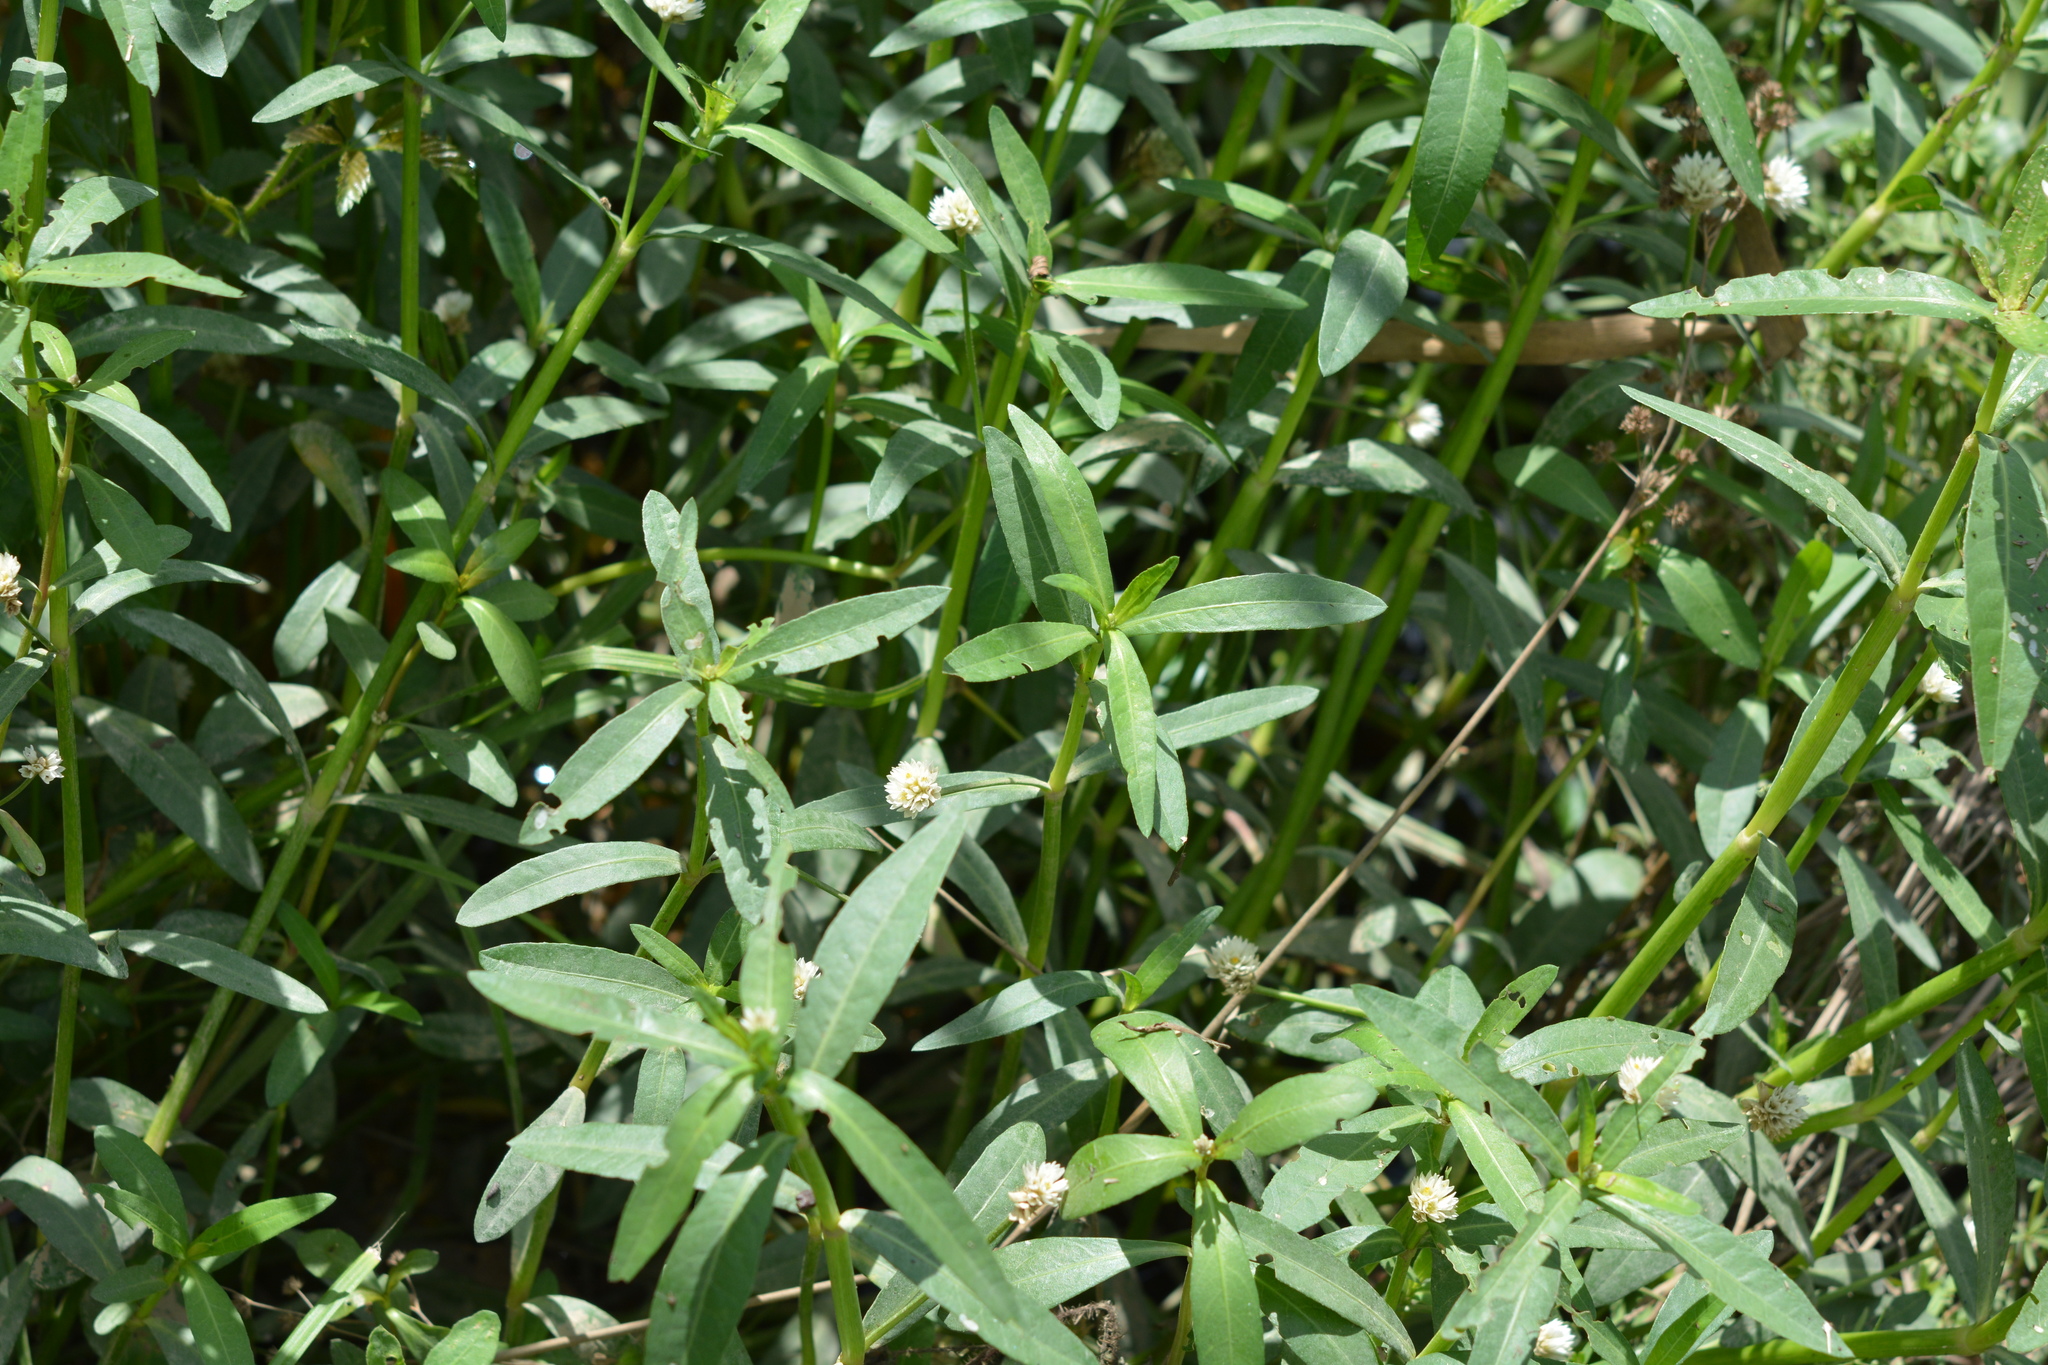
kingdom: Plantae
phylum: Tracheophyta
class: Magnoliopsida
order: Caryophyllales
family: Amaranthaceae
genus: Alternanthera
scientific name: Alternanthera philoxeroides
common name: Alligatorweed
